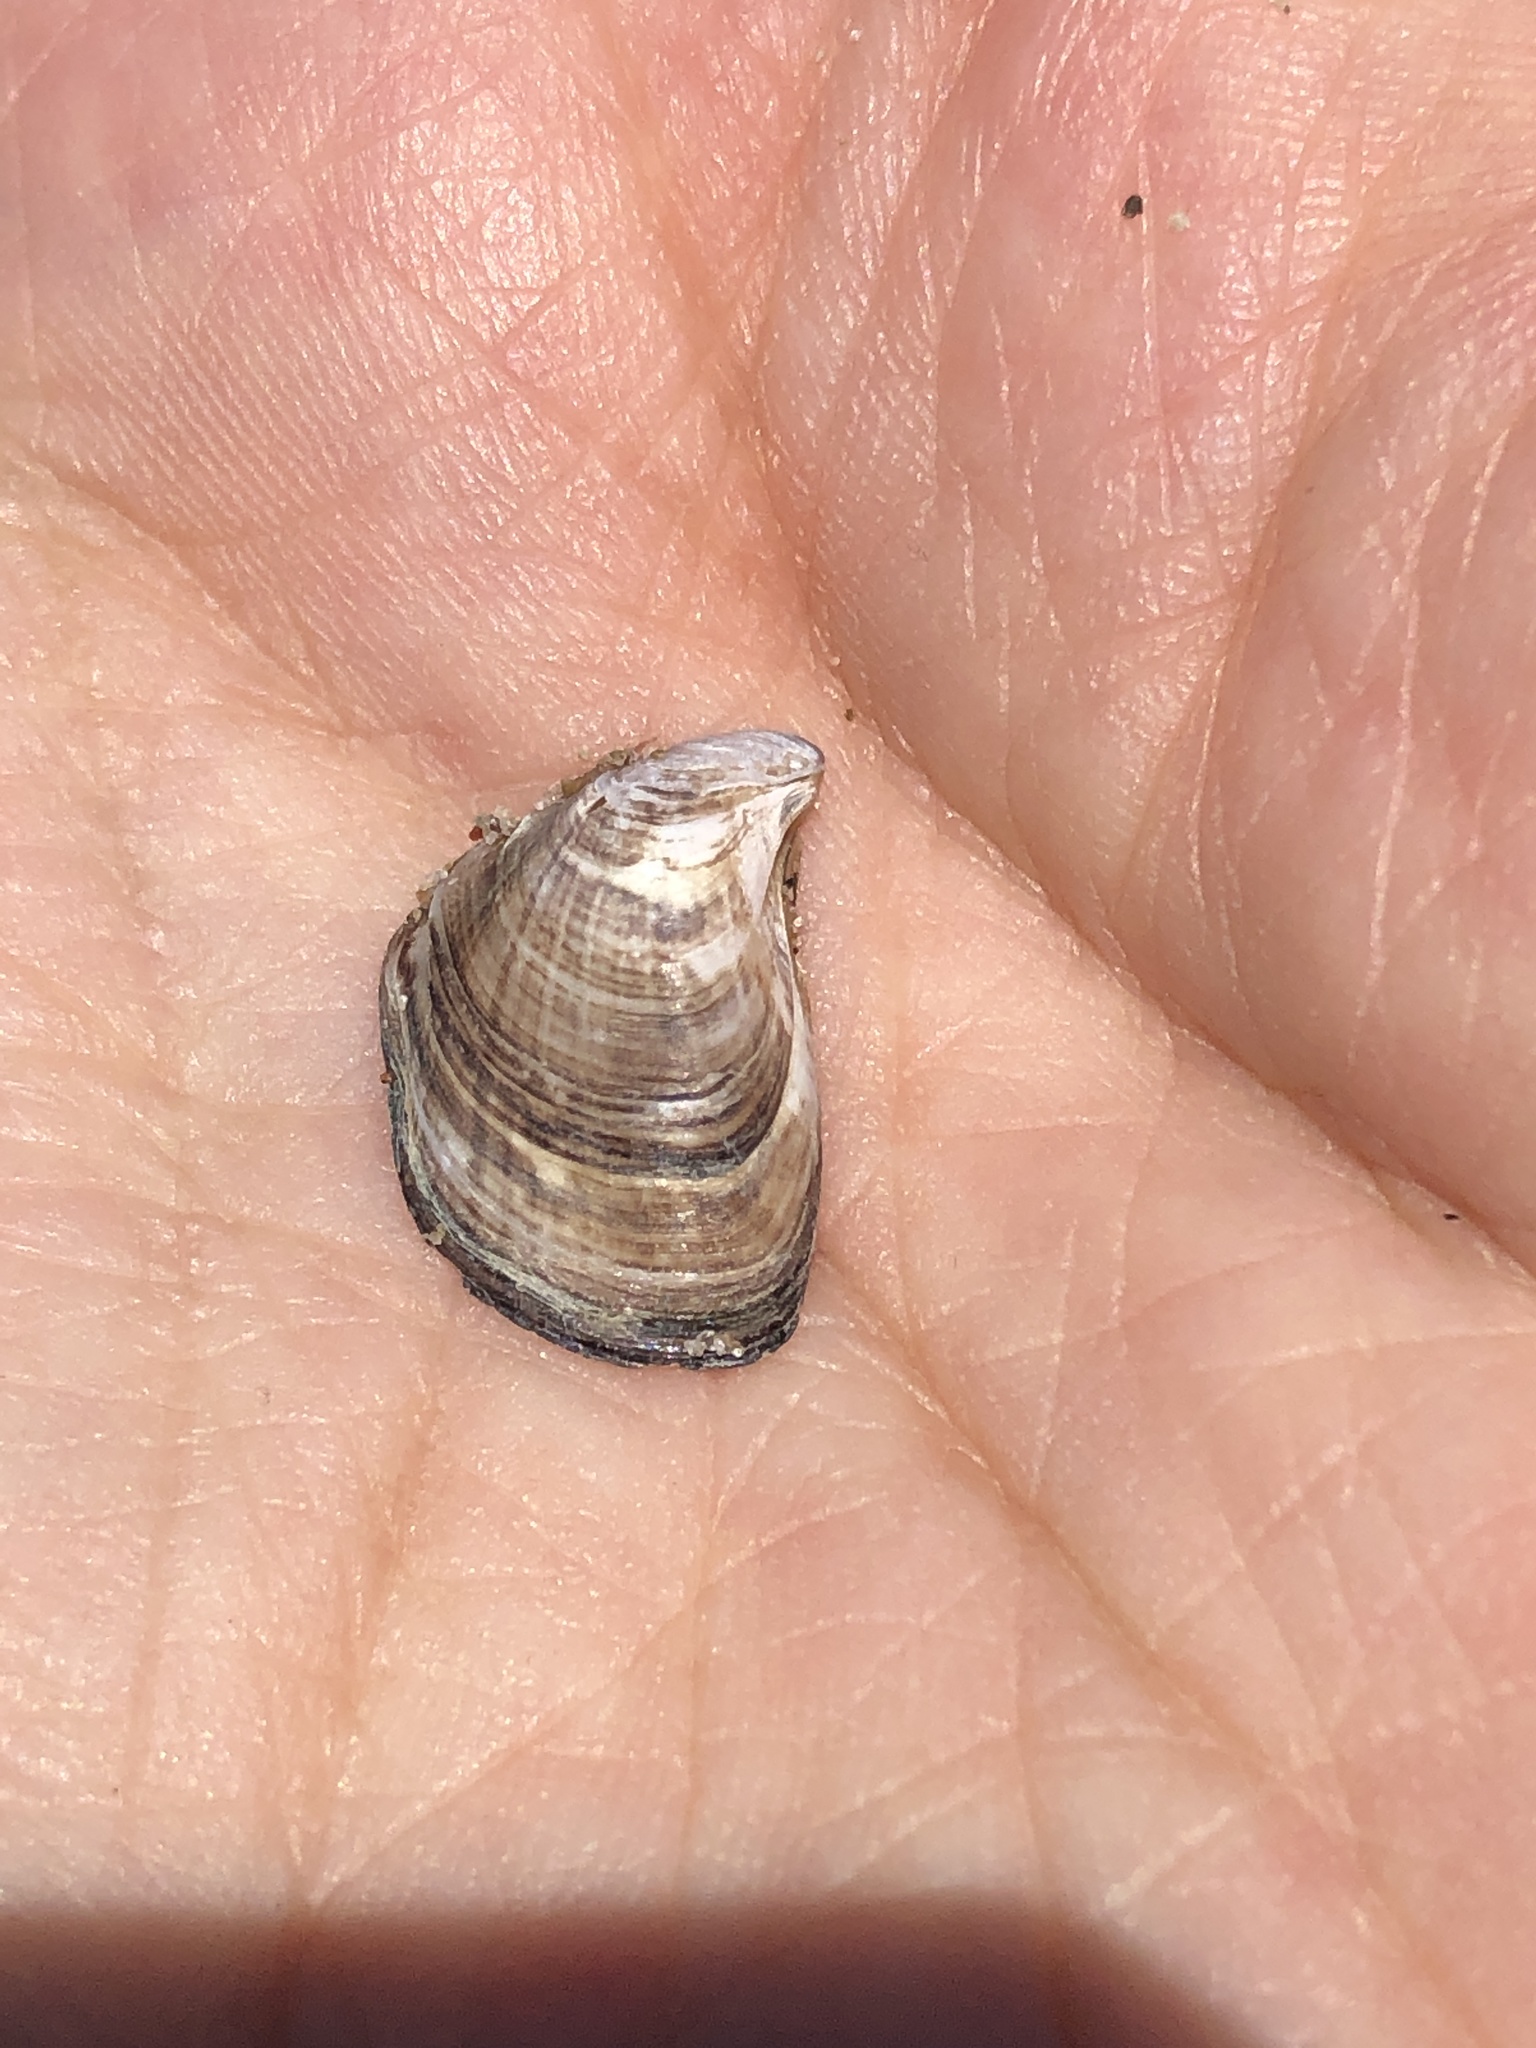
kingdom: Animalia
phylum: Mollusca
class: Bivalvia
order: Myida
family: Dreissenidae
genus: Dreissena
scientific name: Dreissena bugensis
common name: Quagga mussel
